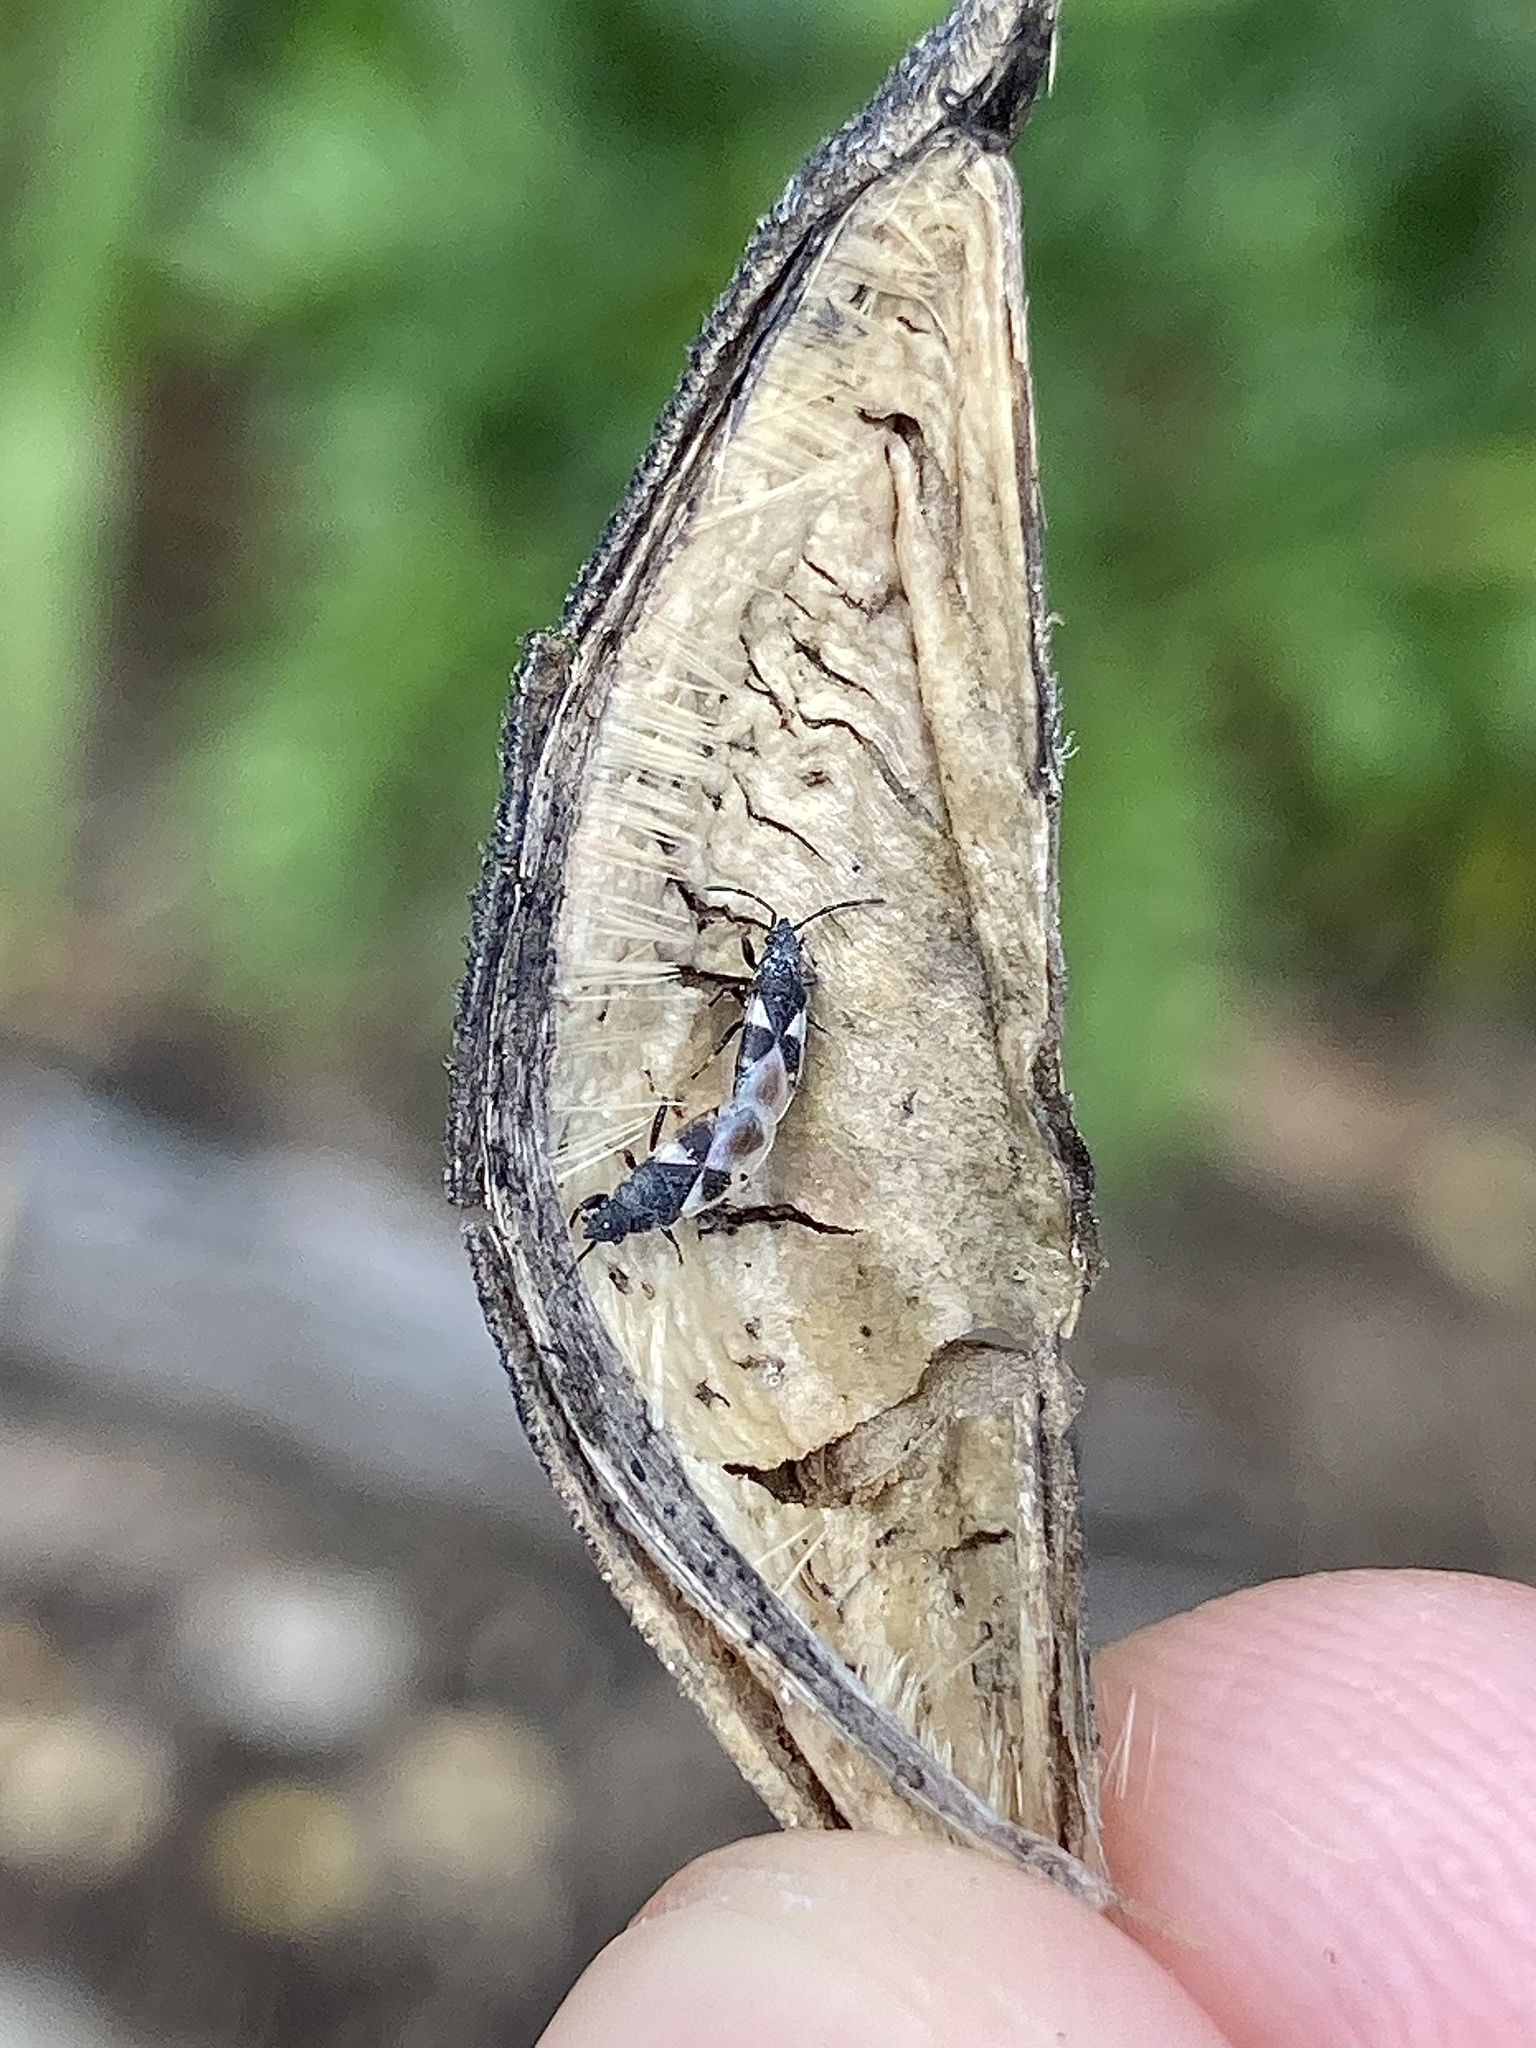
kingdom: Animalia
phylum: Arthropoda
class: Insecta
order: Hemiptera
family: Oxycarenidae
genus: Oxycarenus
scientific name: Oxycarenus luctuosus
